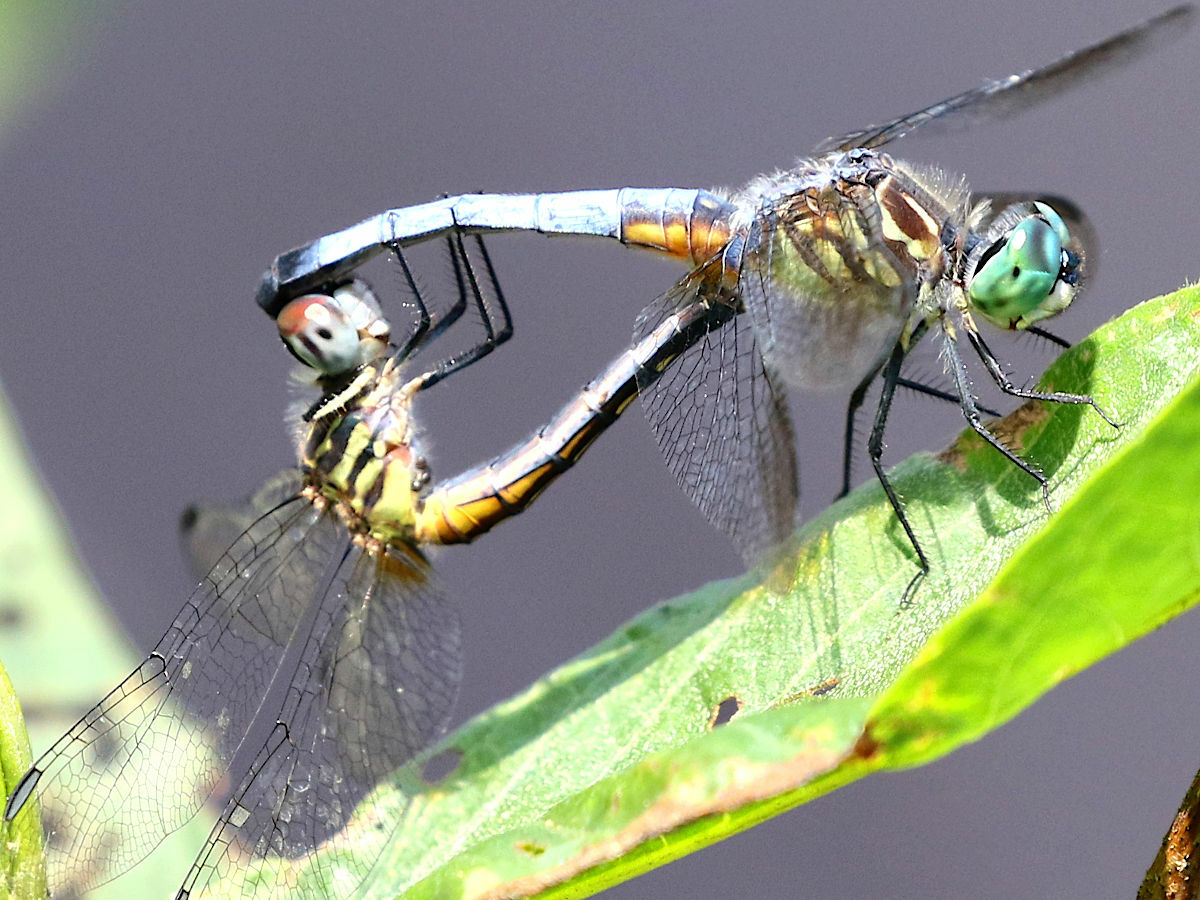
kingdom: Animalia
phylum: Arthropoda
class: Insecta
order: Odonata
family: Libellulidae
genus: Pachydiplax
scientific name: Pachydiplax longipennis
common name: Blue dasher
